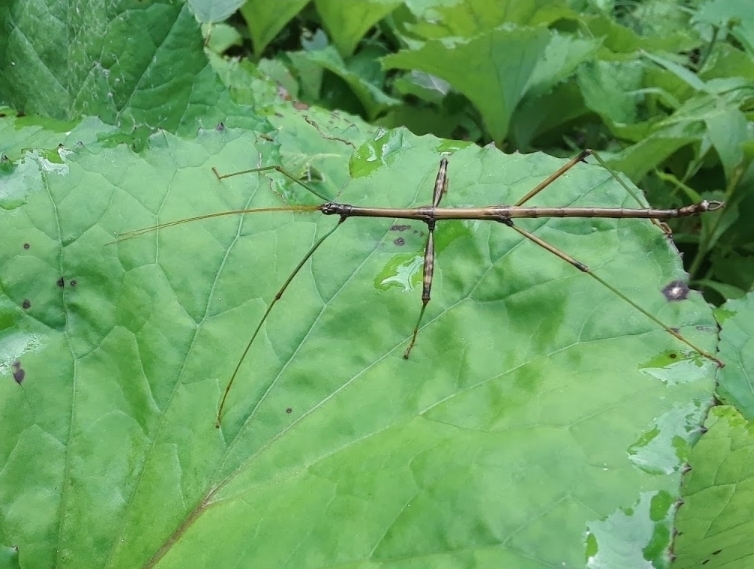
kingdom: Animalia
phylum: Arthropoda
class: Insecta
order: Phasmida
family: Diapheromeridae
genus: Diapheromera
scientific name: Diapheromera femorata
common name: Common american walkingstick
